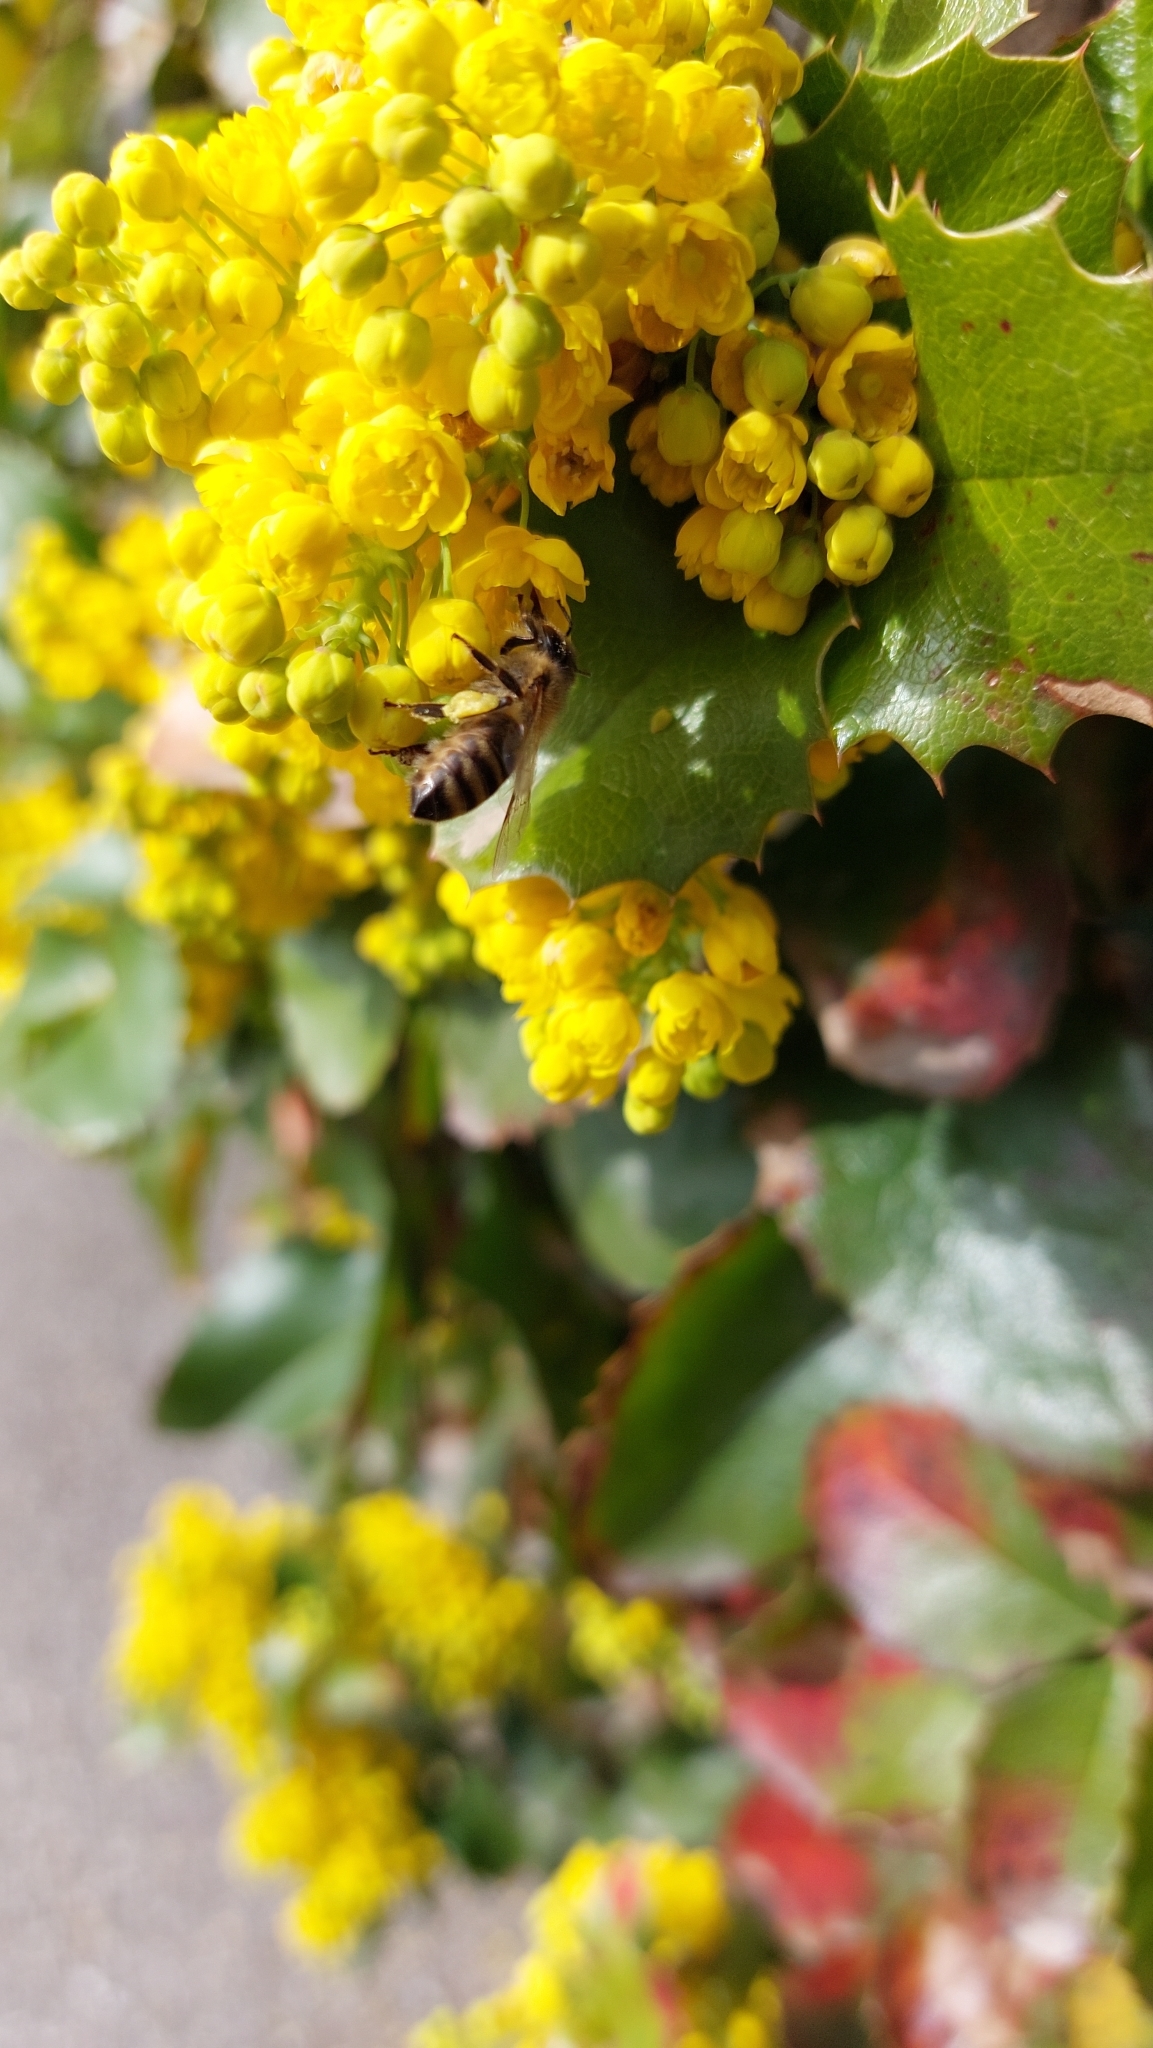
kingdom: Animalia
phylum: Arthropoda
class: Insecta
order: Hymenoptera
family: Apidae
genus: Apis
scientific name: Apis mellifera
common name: Honey bee
